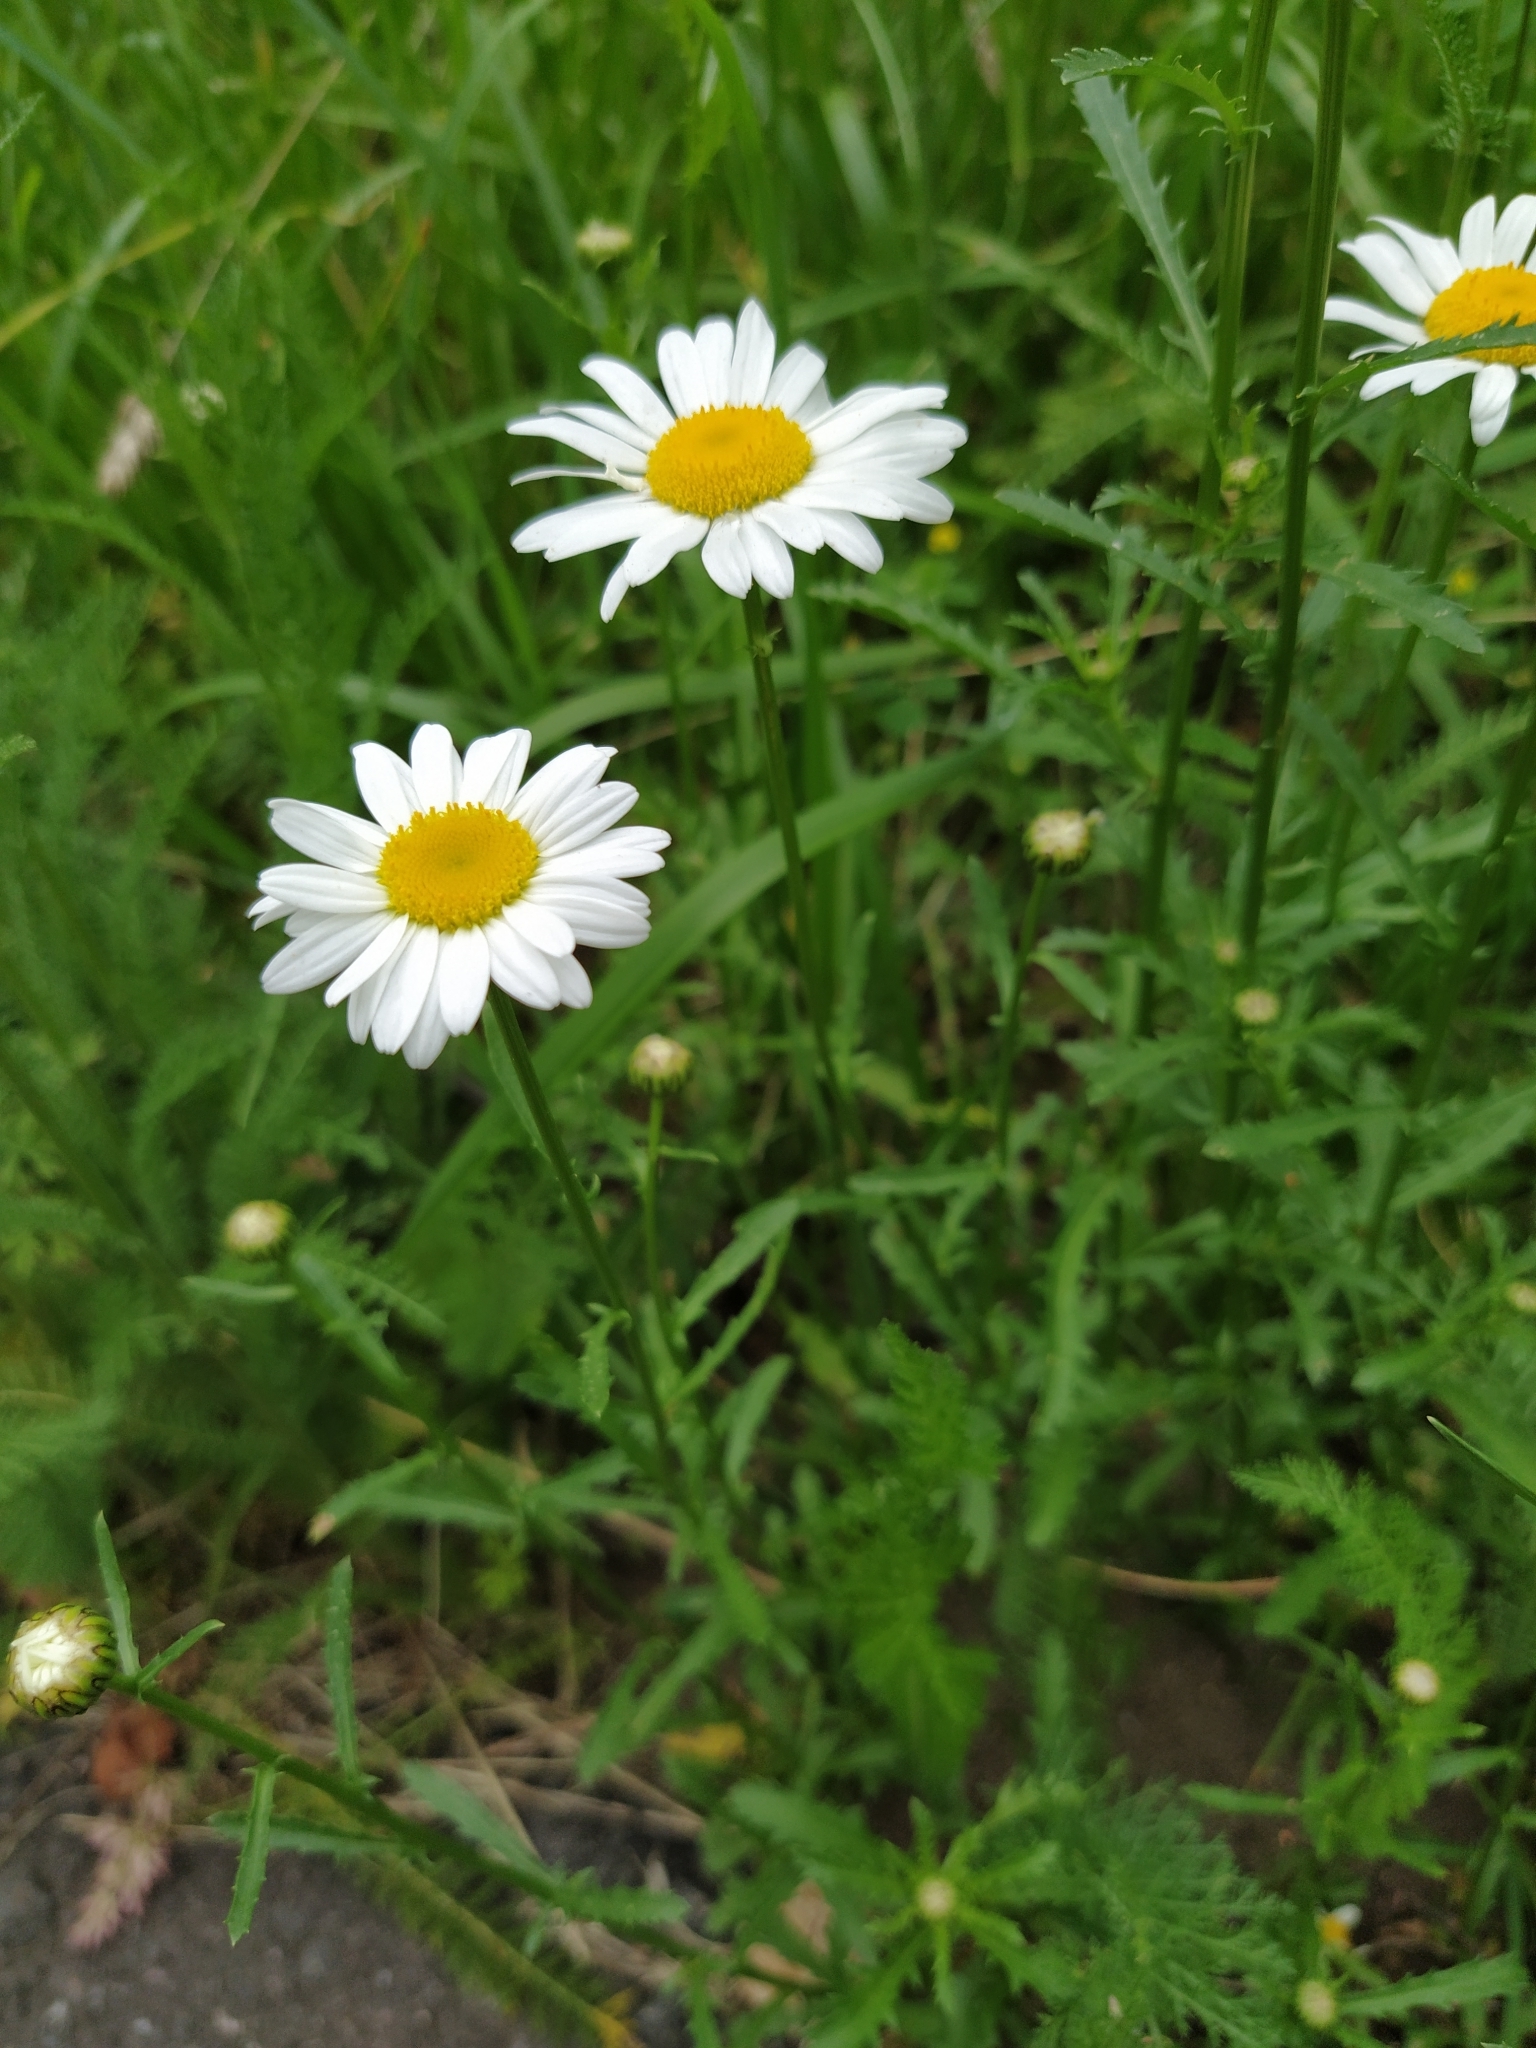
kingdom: Plantae
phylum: Tracheophyta
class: Magnoliopsida
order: Asterales
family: Asteraceae
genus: Leucanthemum
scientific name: Leucanthemum vulgare
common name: Oxeye daisy
